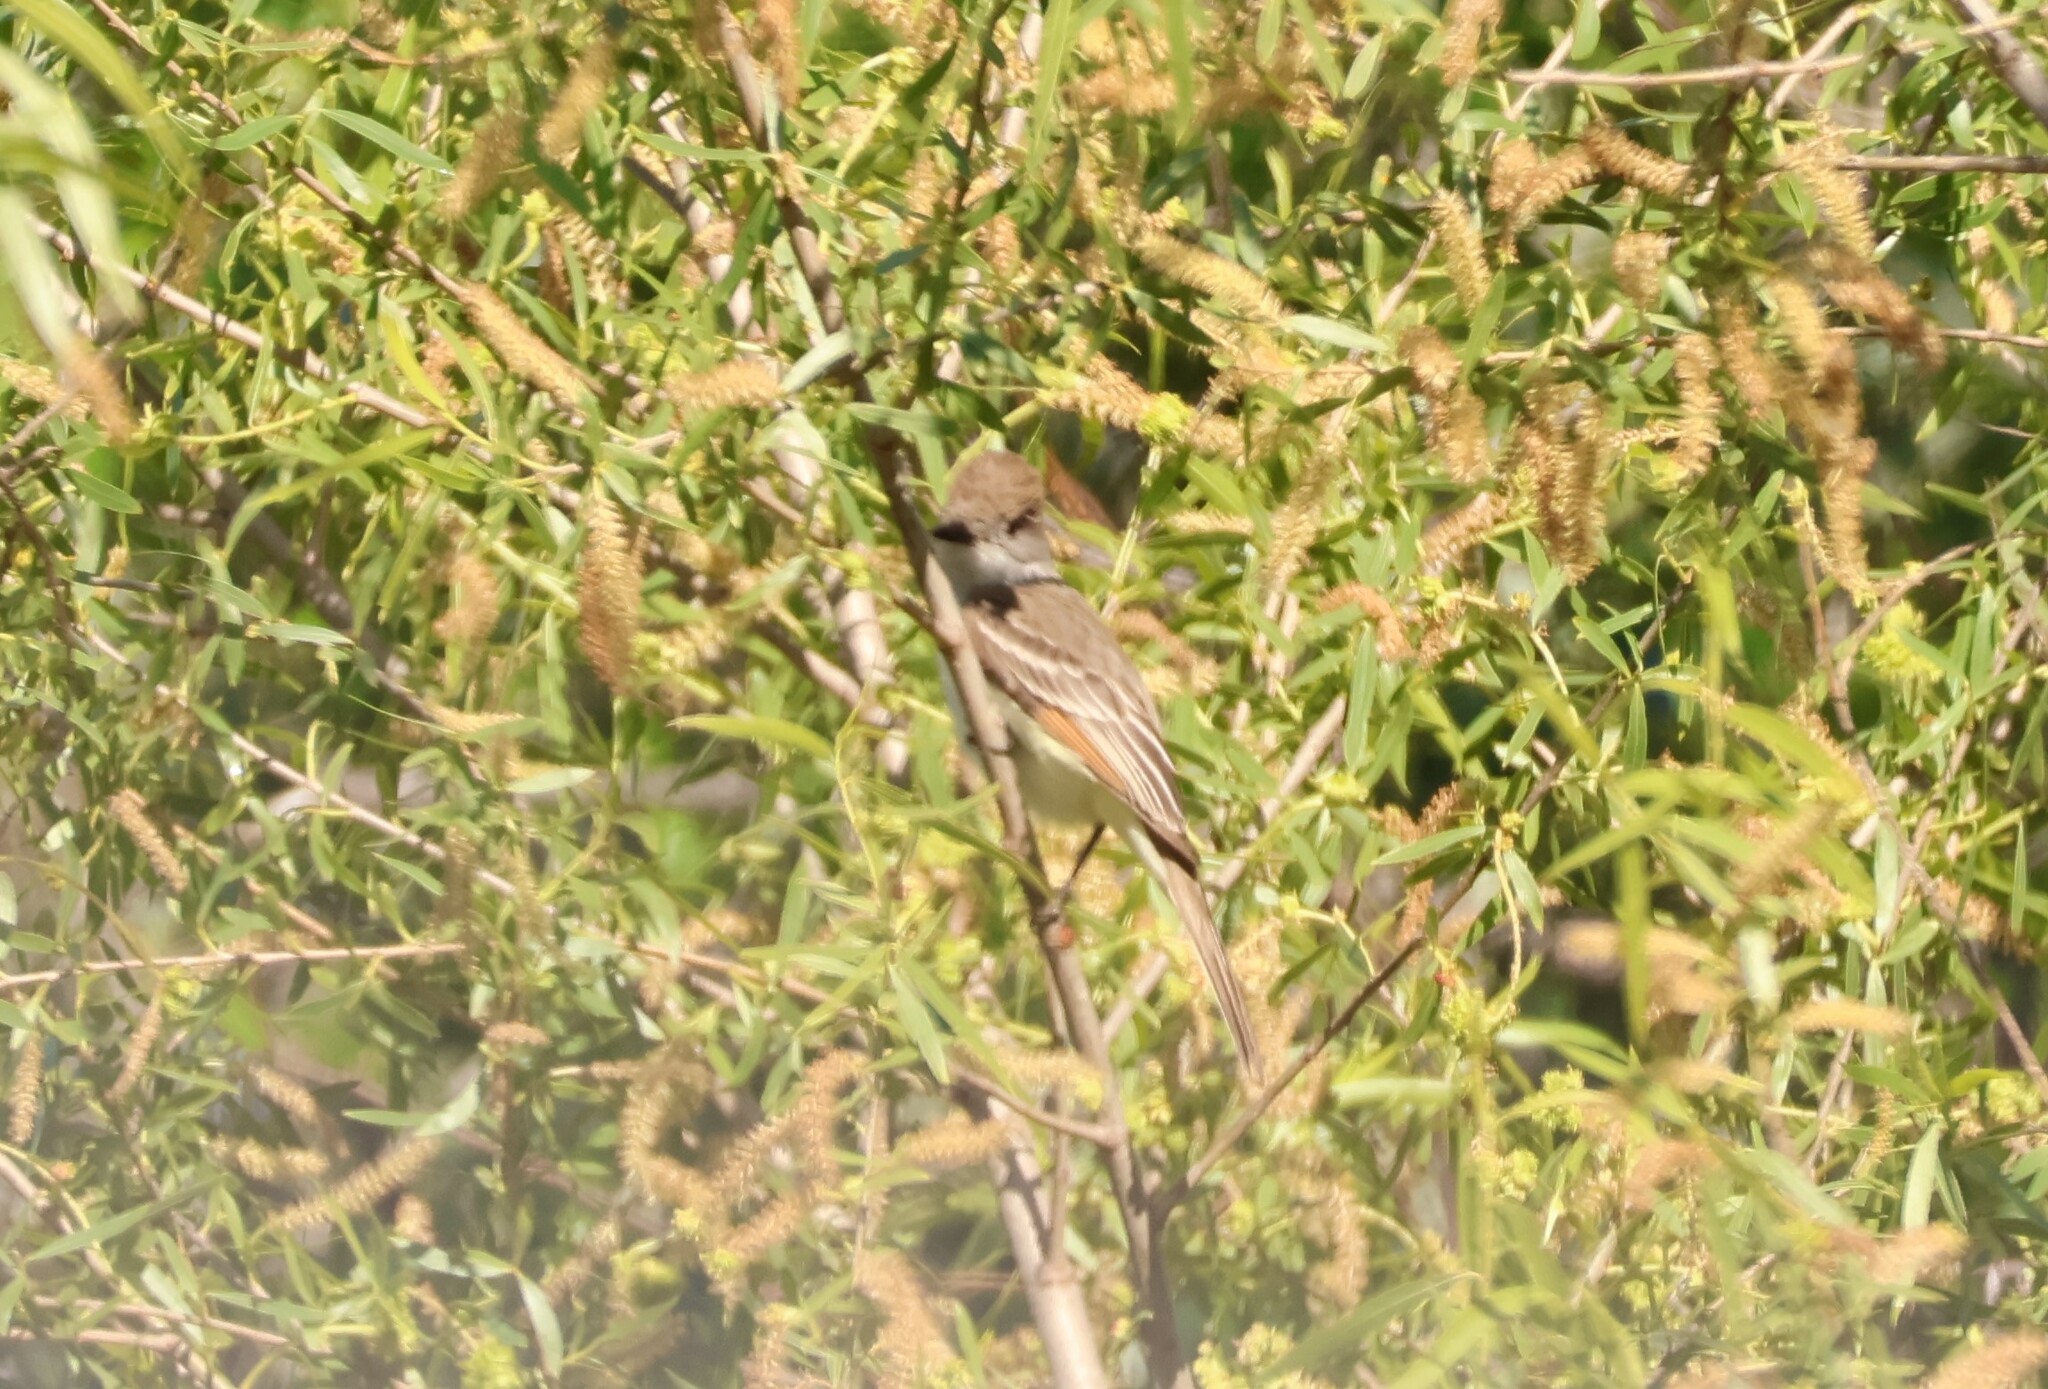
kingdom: Animalia
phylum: Chordata
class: Aves
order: Passeriformes
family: Tyrannidae
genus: Myiarchus
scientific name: Myiarchus cinerascens
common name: Ash-throated flycatcher
